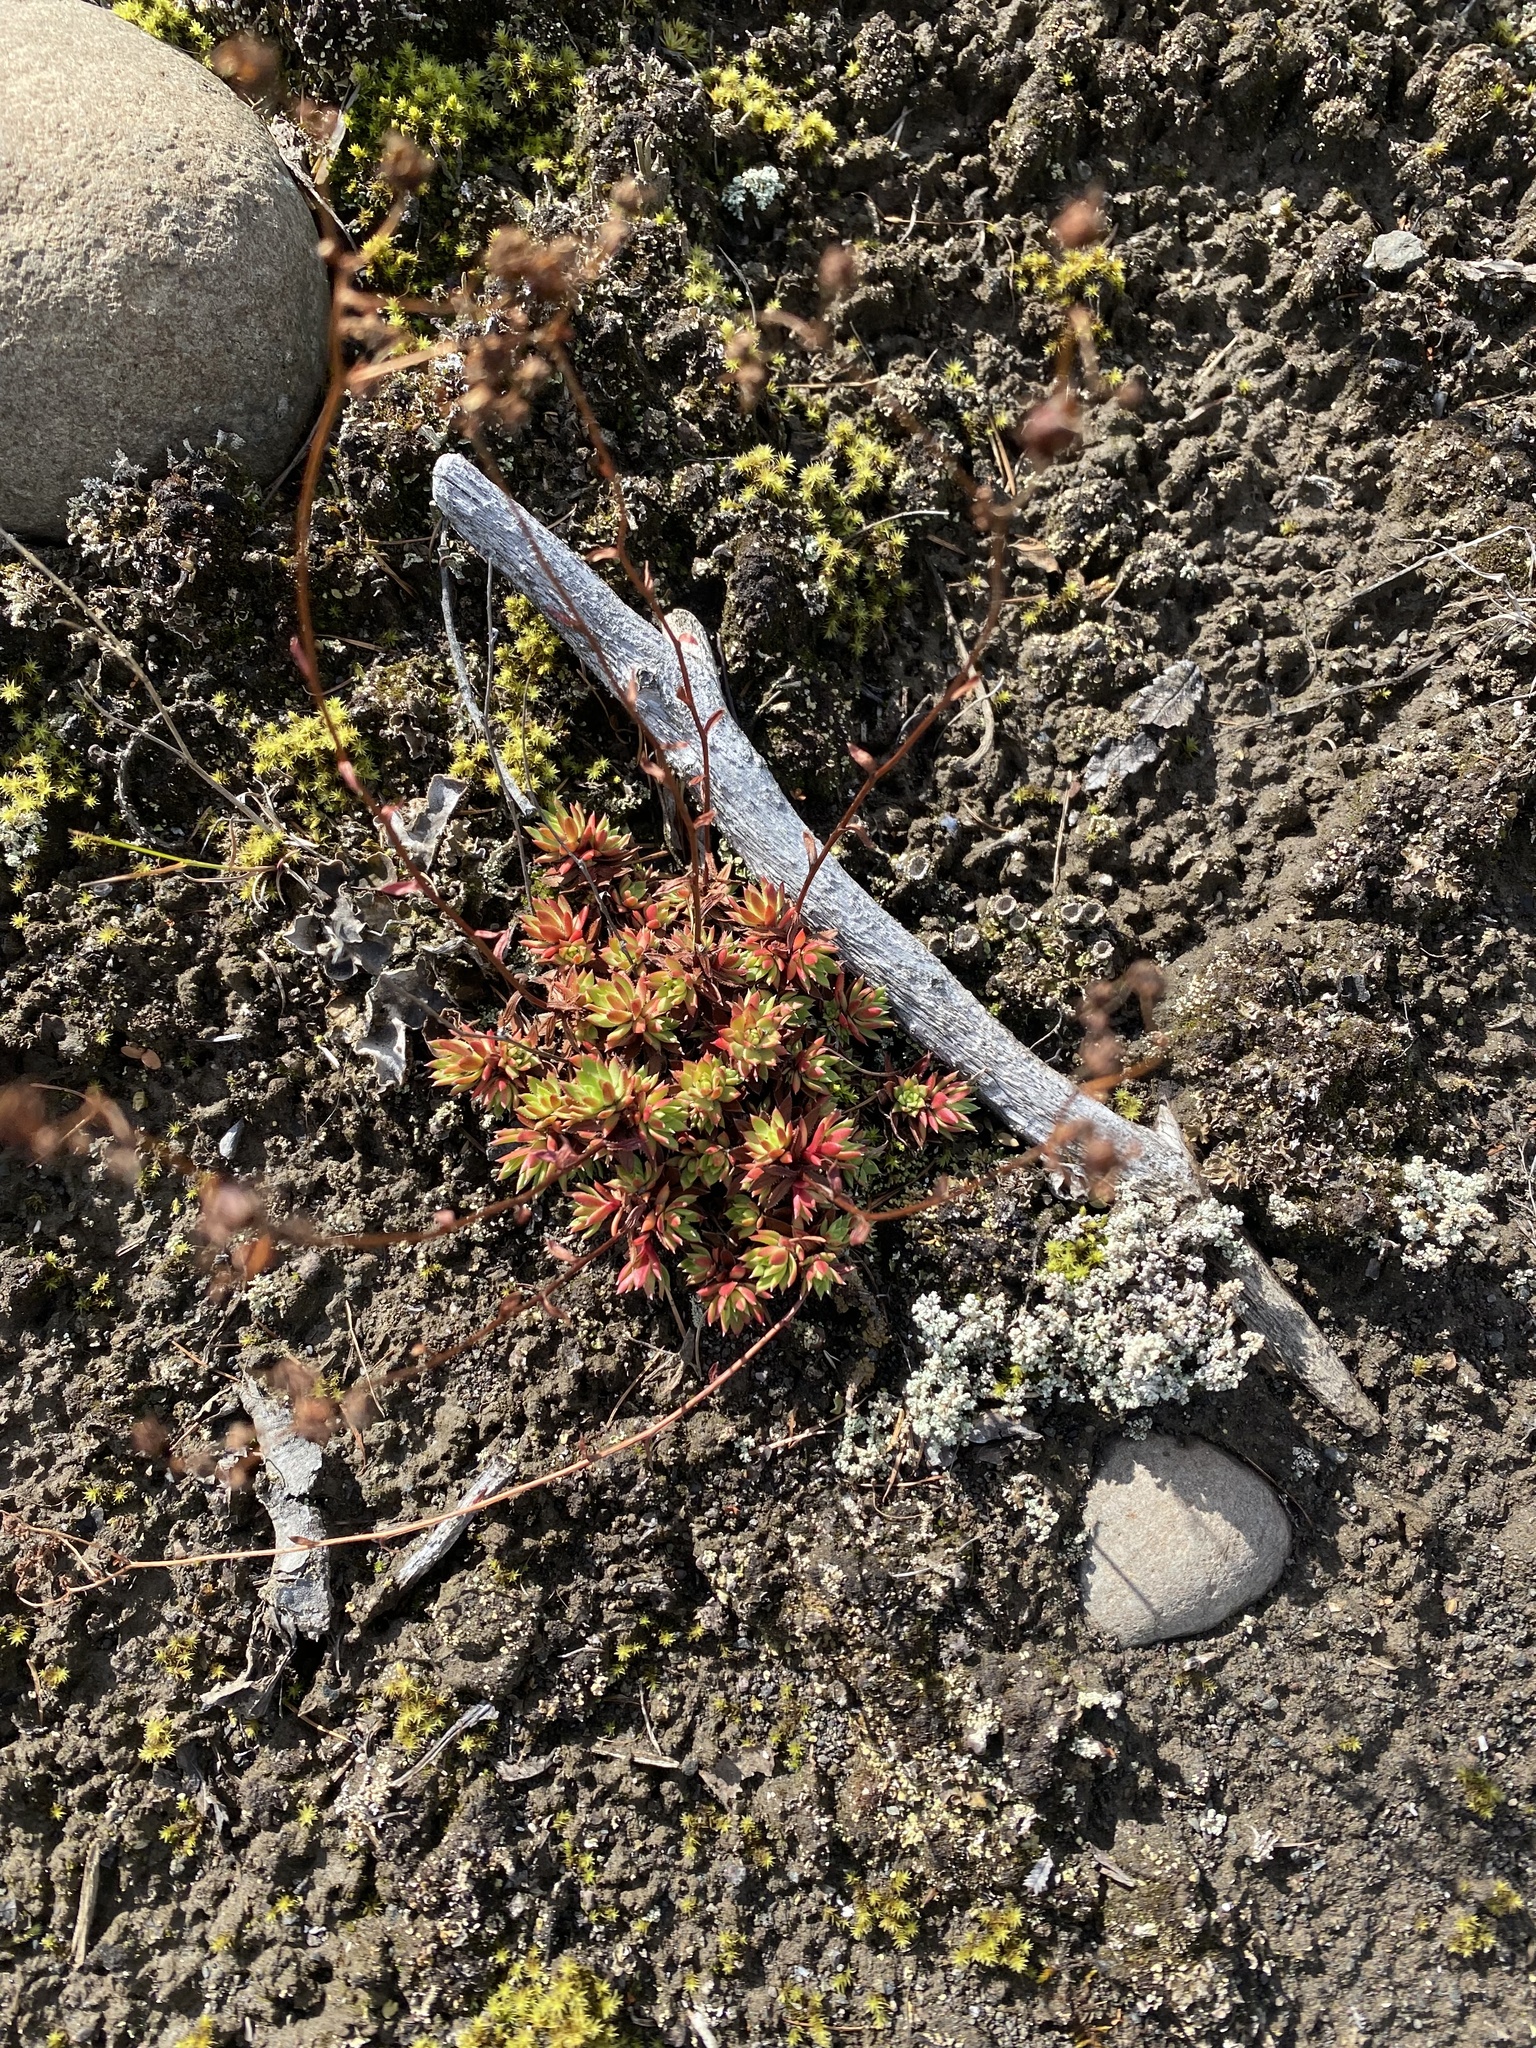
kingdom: Plantae
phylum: Tracheophyta
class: Magnoliopsida
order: Saxifragales
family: Saxifragaceae
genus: Saxifraga
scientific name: Saxifraga
